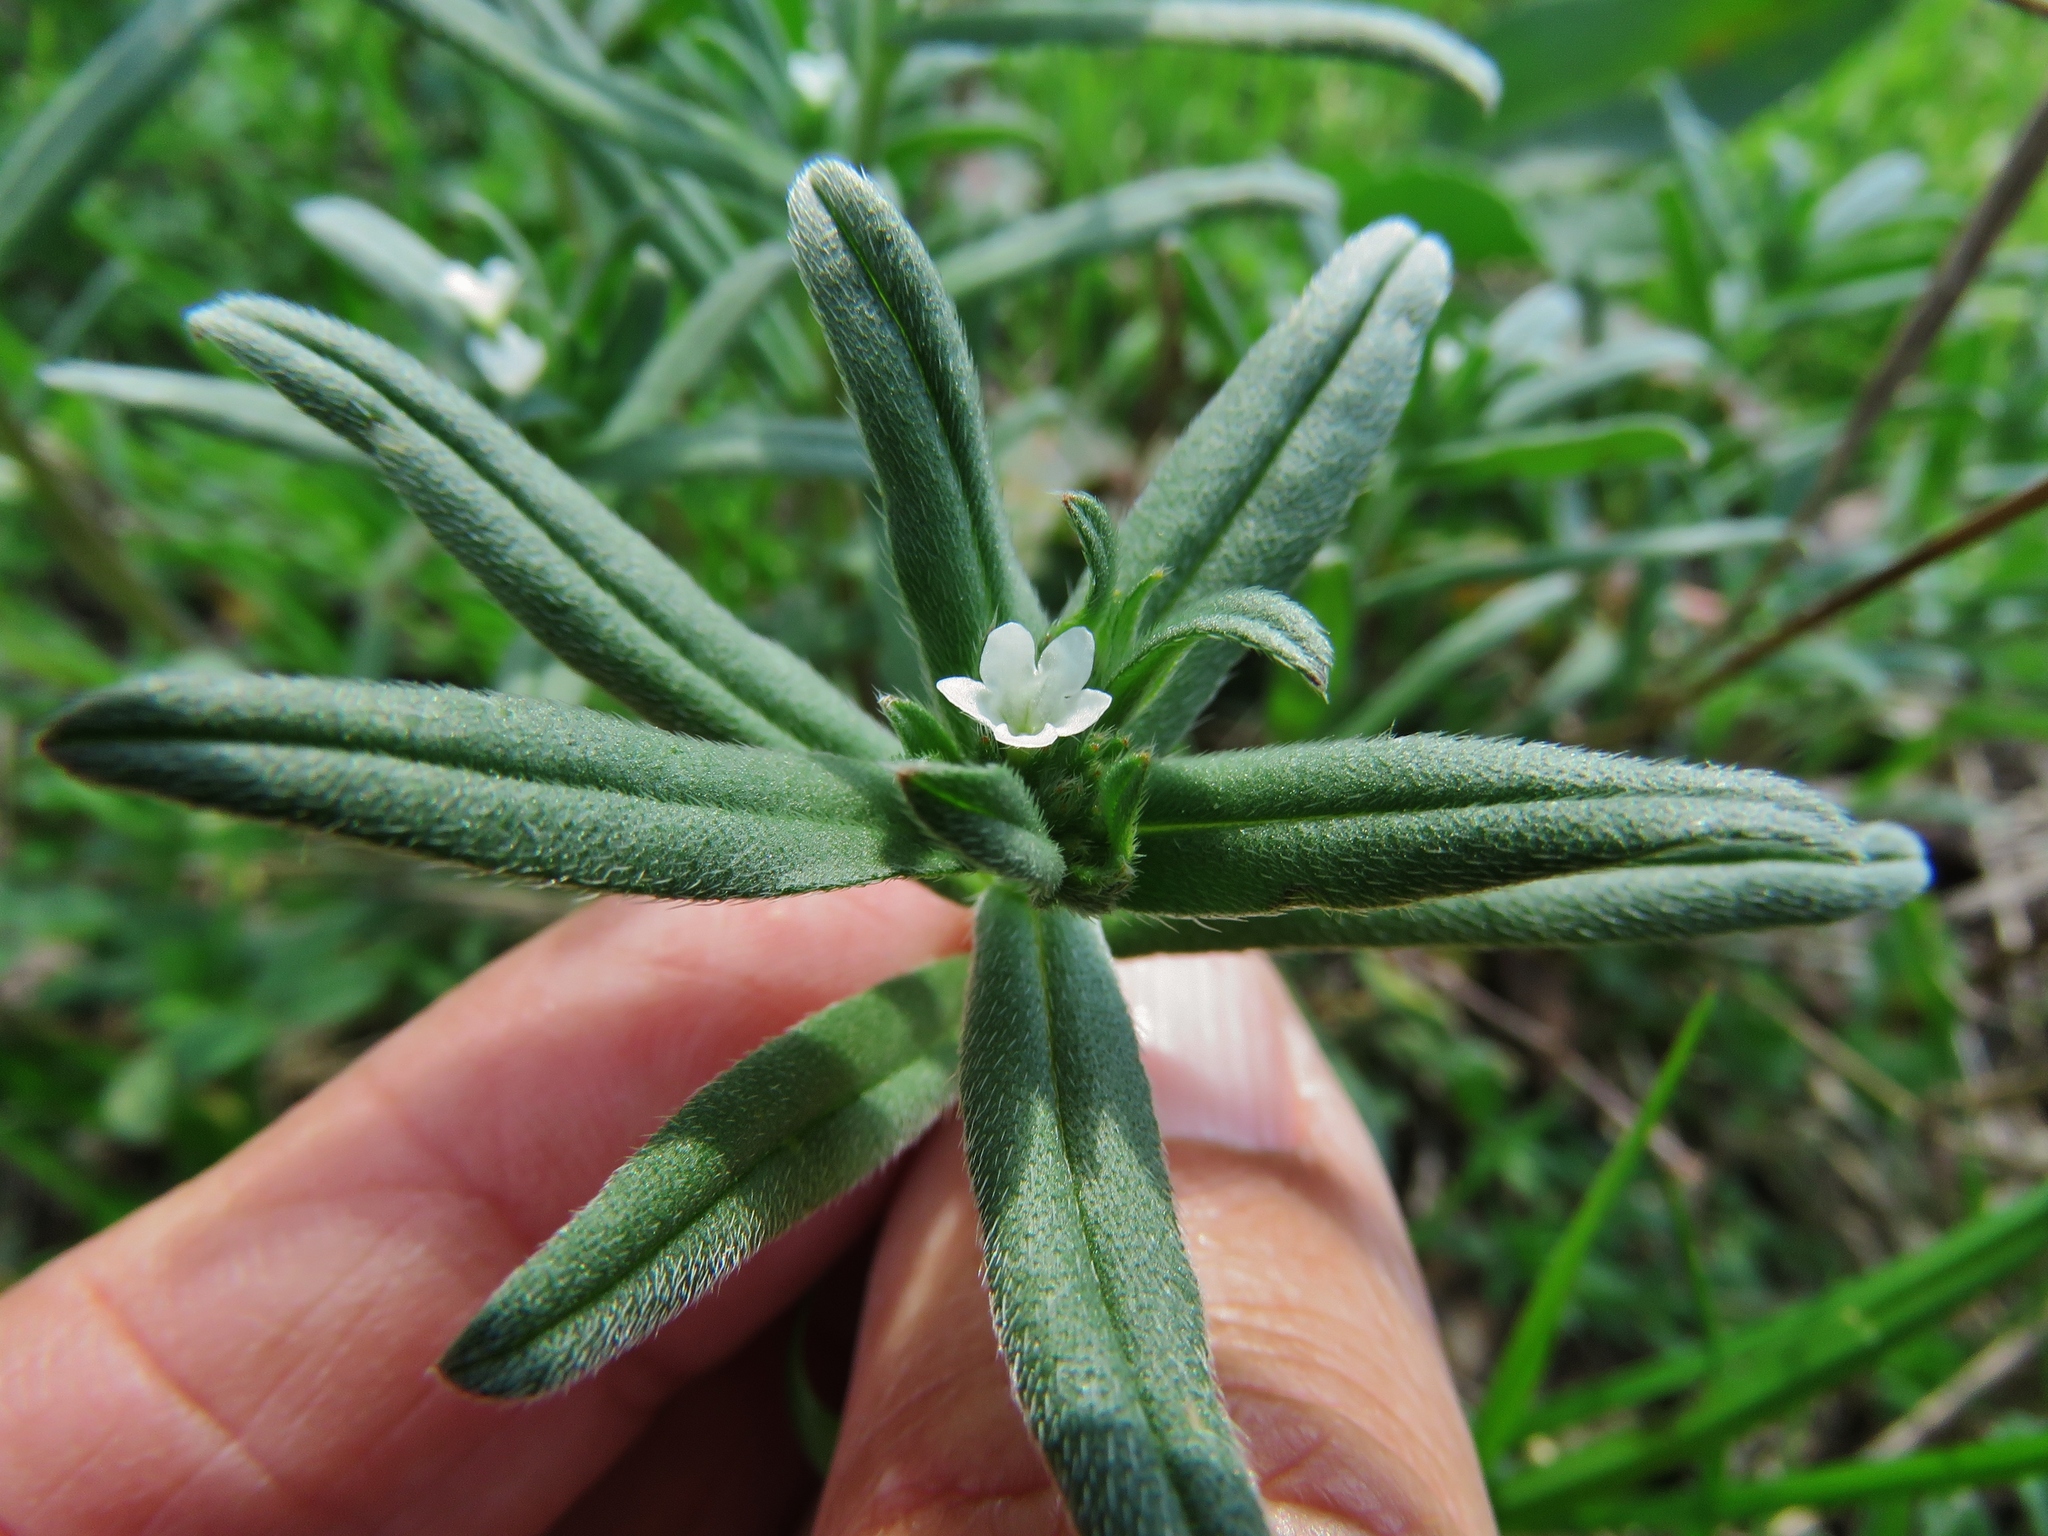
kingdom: Plantae
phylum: Tracheophyta
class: Magnoliopsida
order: Boraginales
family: Boraginaceae
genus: Buglossoides
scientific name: Buglossoides arvensis
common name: Corn gromwell
